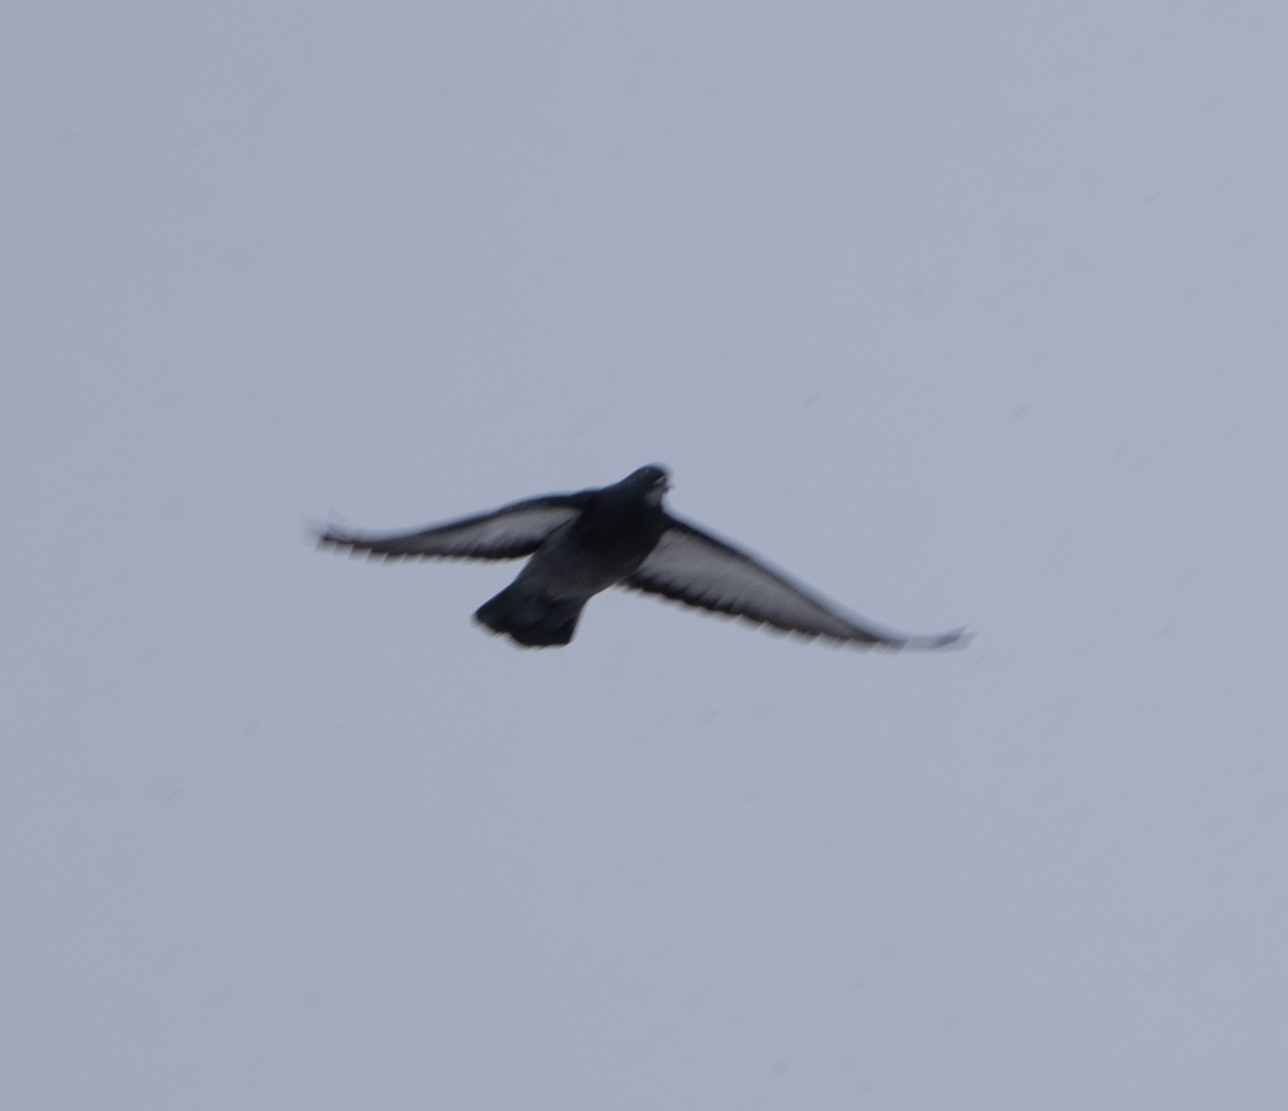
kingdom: Animalia
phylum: Chordata
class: Aves
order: Columbiformes
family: Columbidae
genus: Columba
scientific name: Columba livia
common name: Rock pigeon
